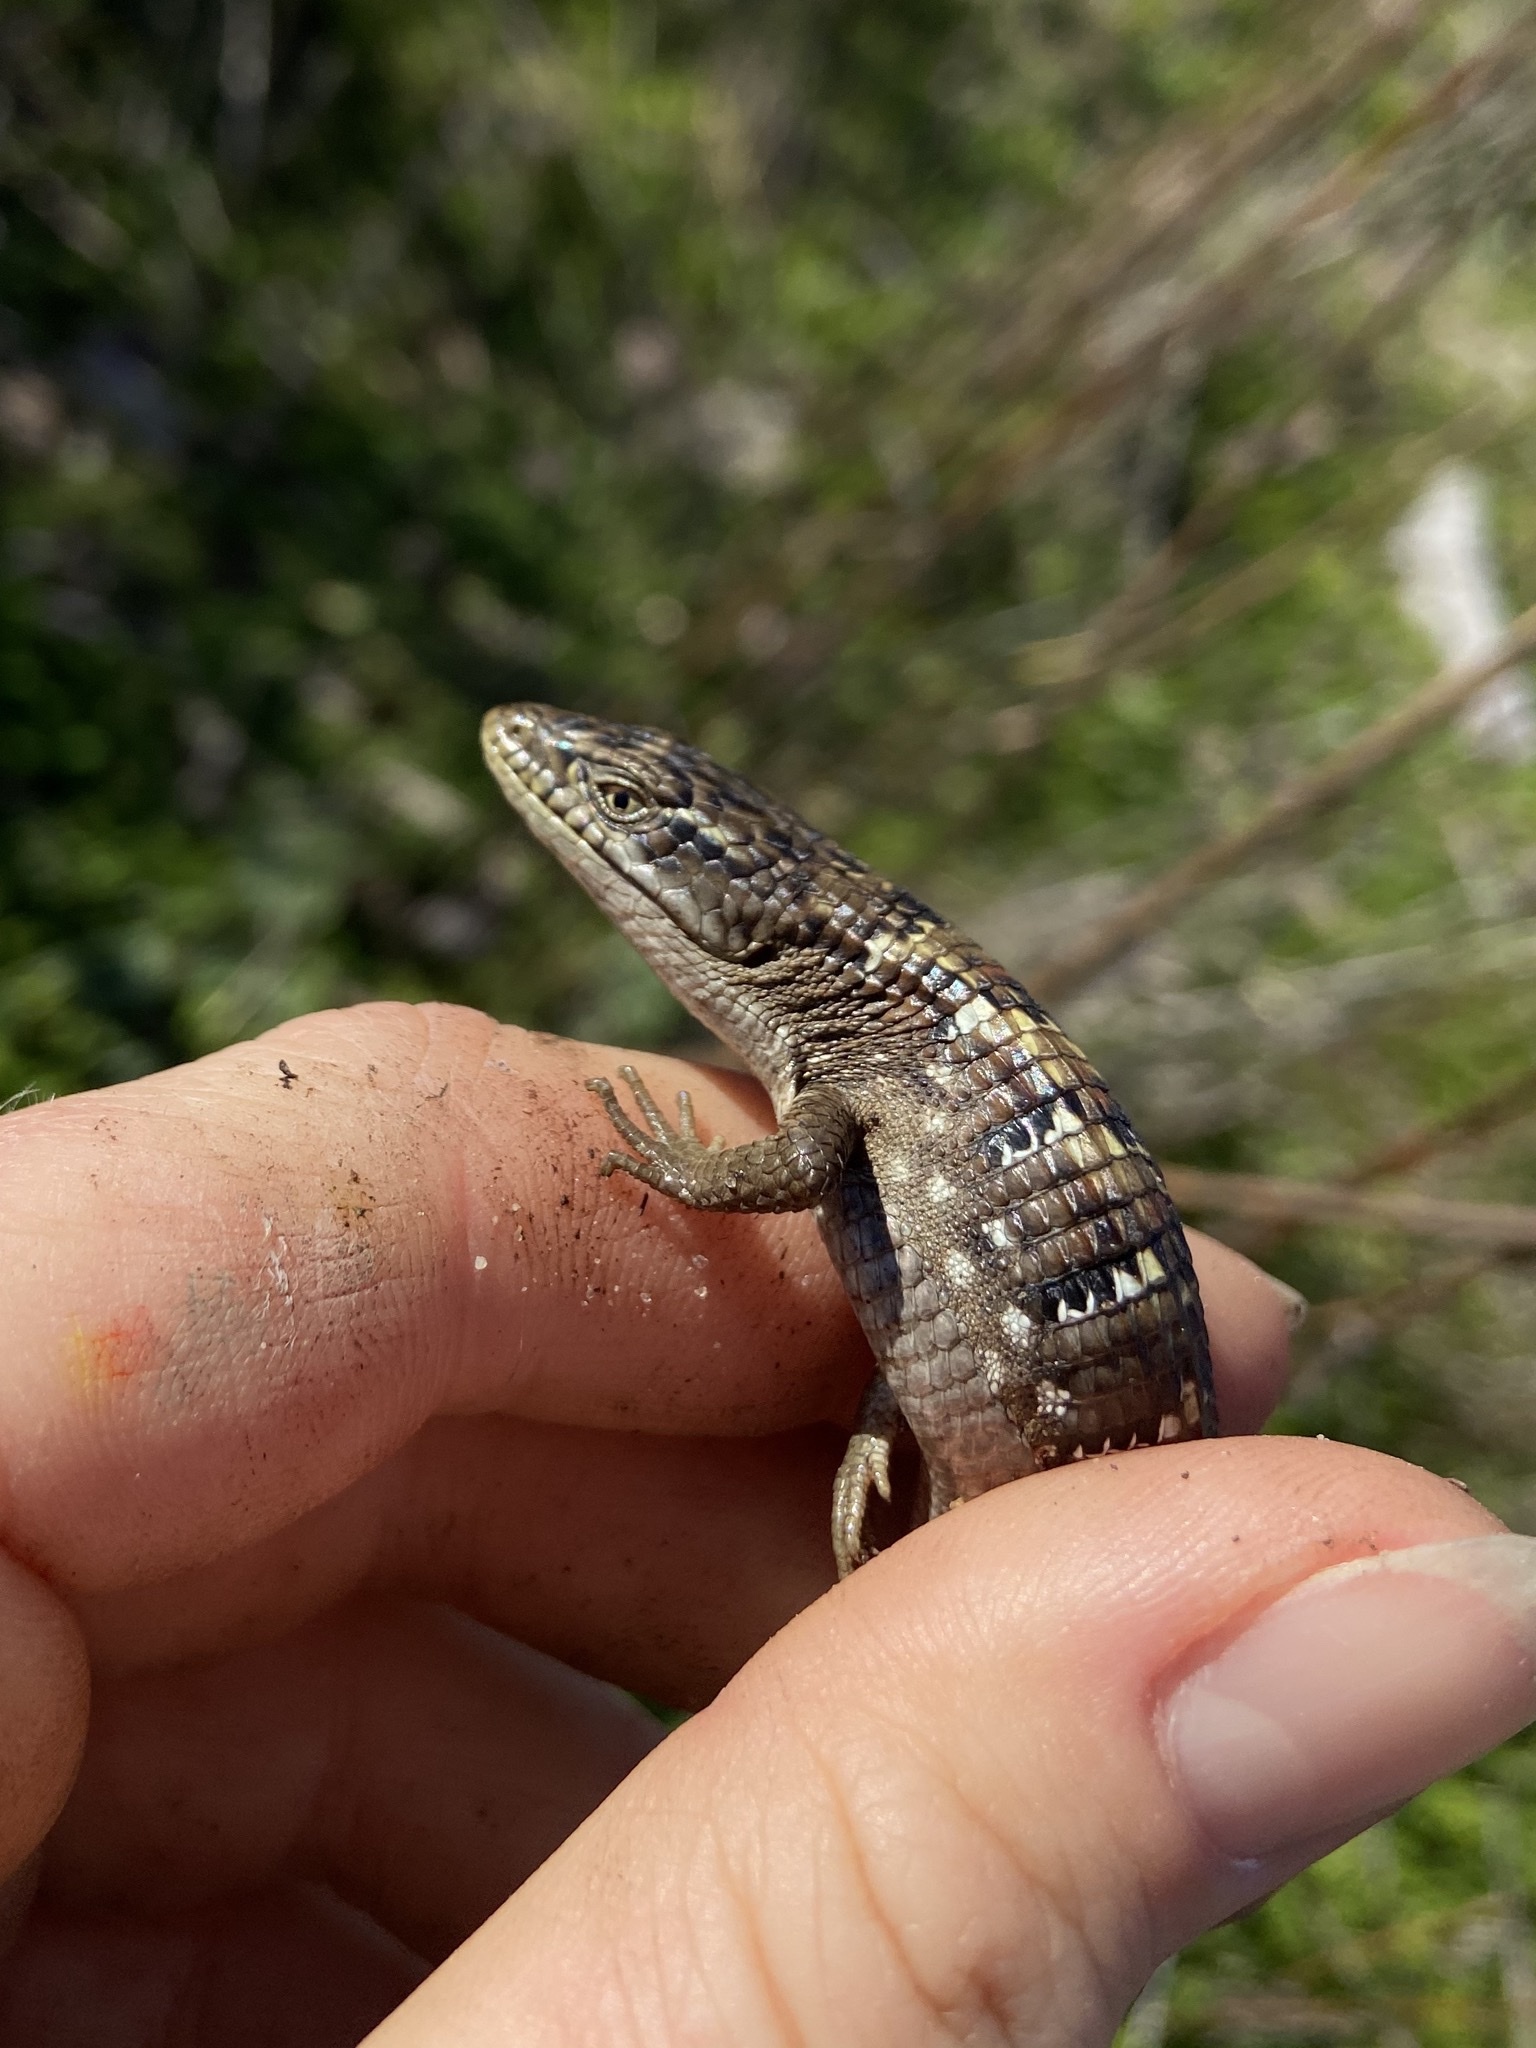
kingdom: Animalia
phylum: Chordata
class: Squamata
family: Anguidae
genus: Elgaria
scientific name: Elgaria multicarinata
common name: Southern alligator lizard
